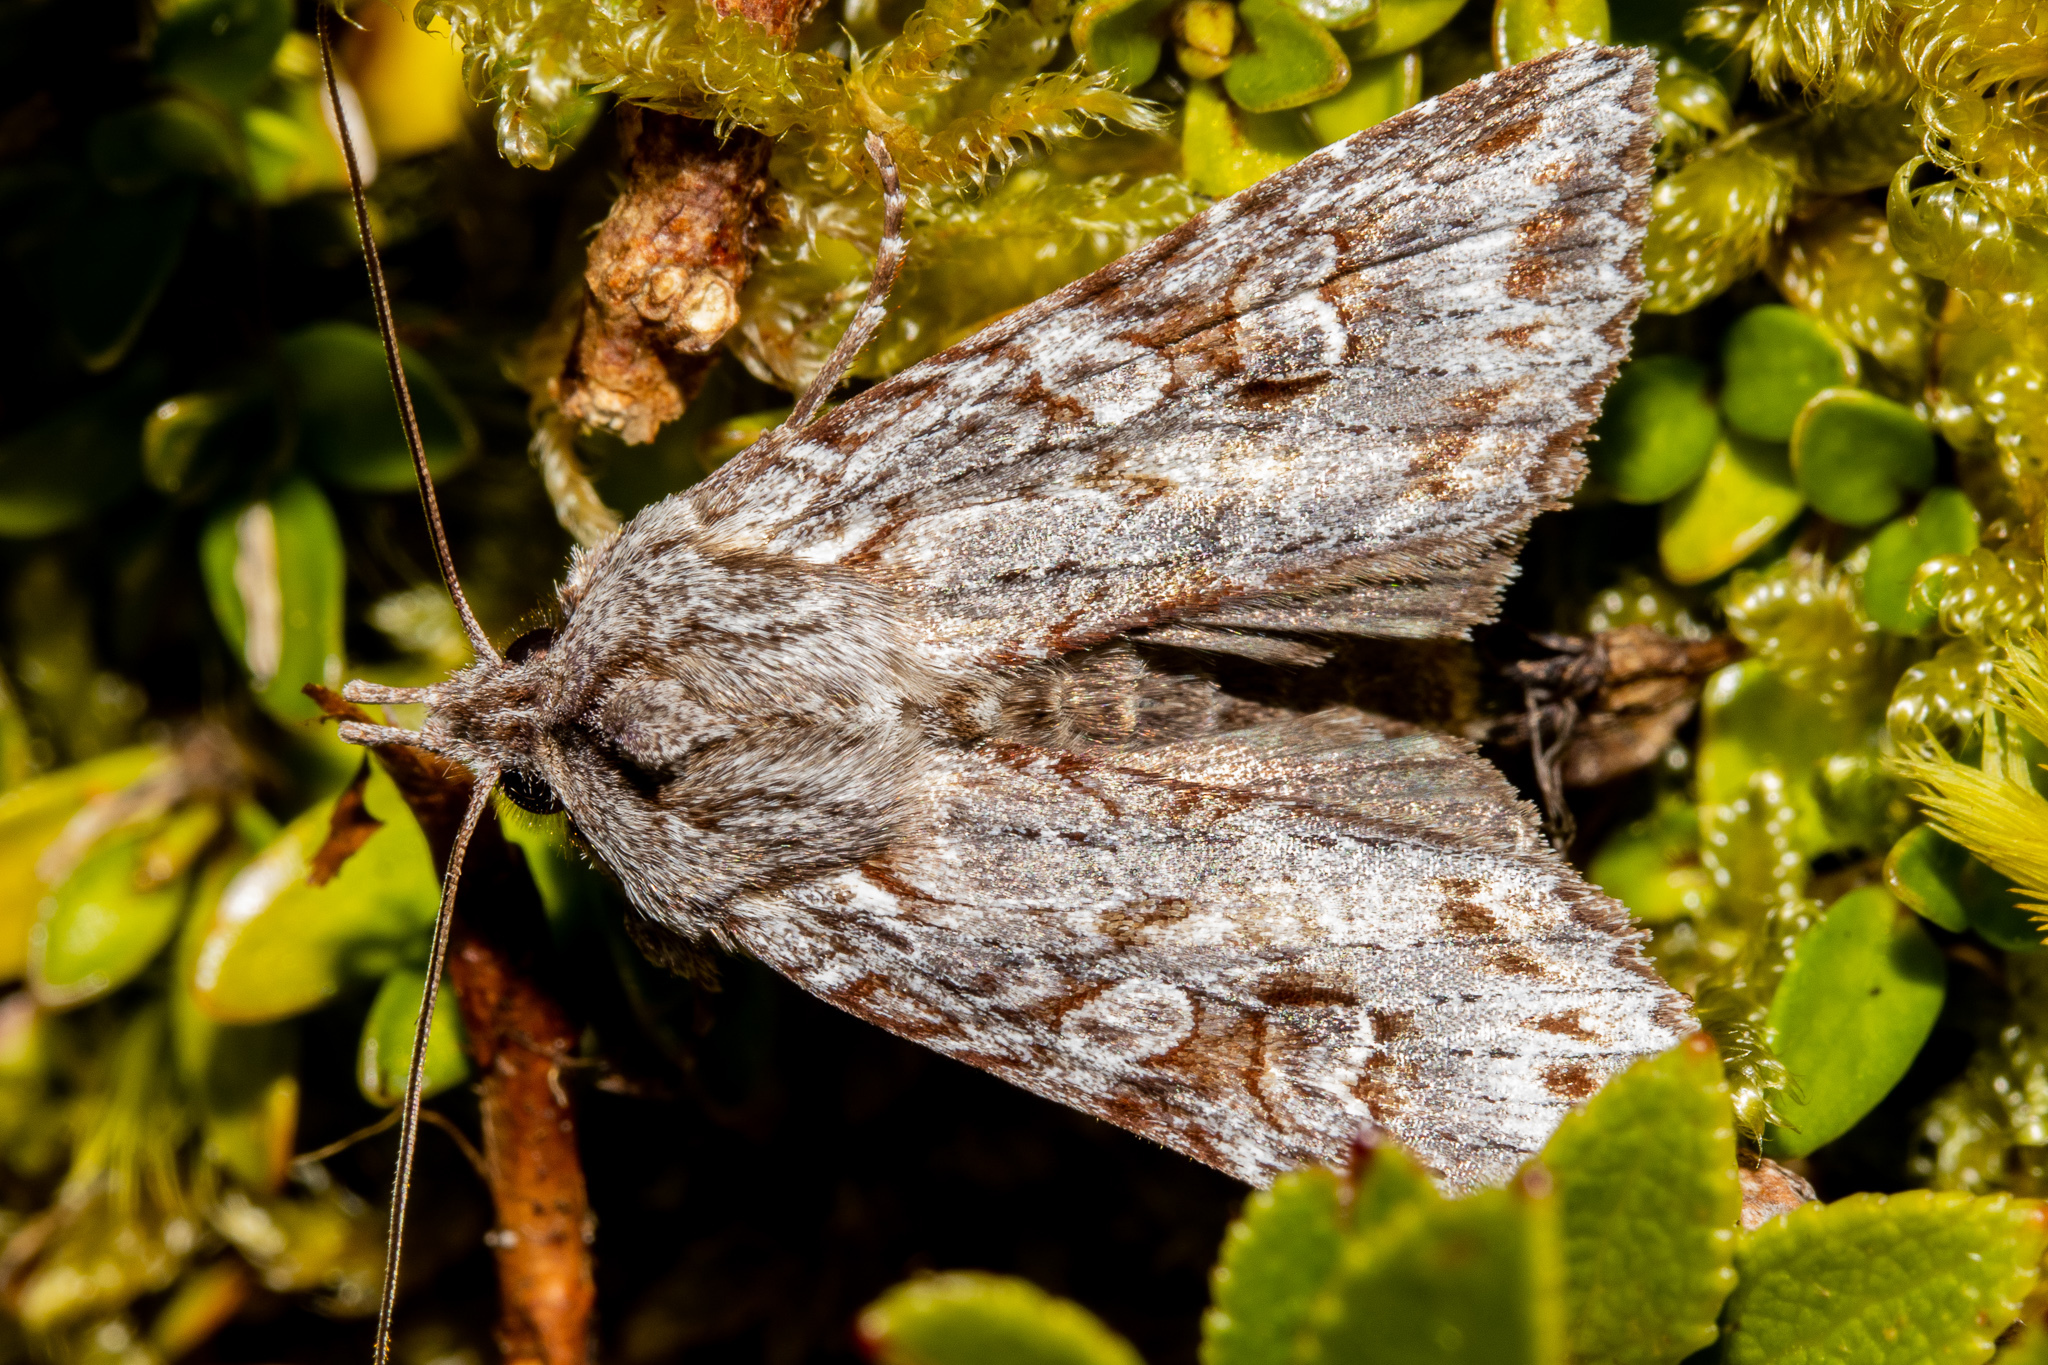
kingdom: Animalia
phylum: Arthropoda
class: Insecta
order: Lepidoptera
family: Noctuidae
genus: Physetica
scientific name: Physetica longstaffii
